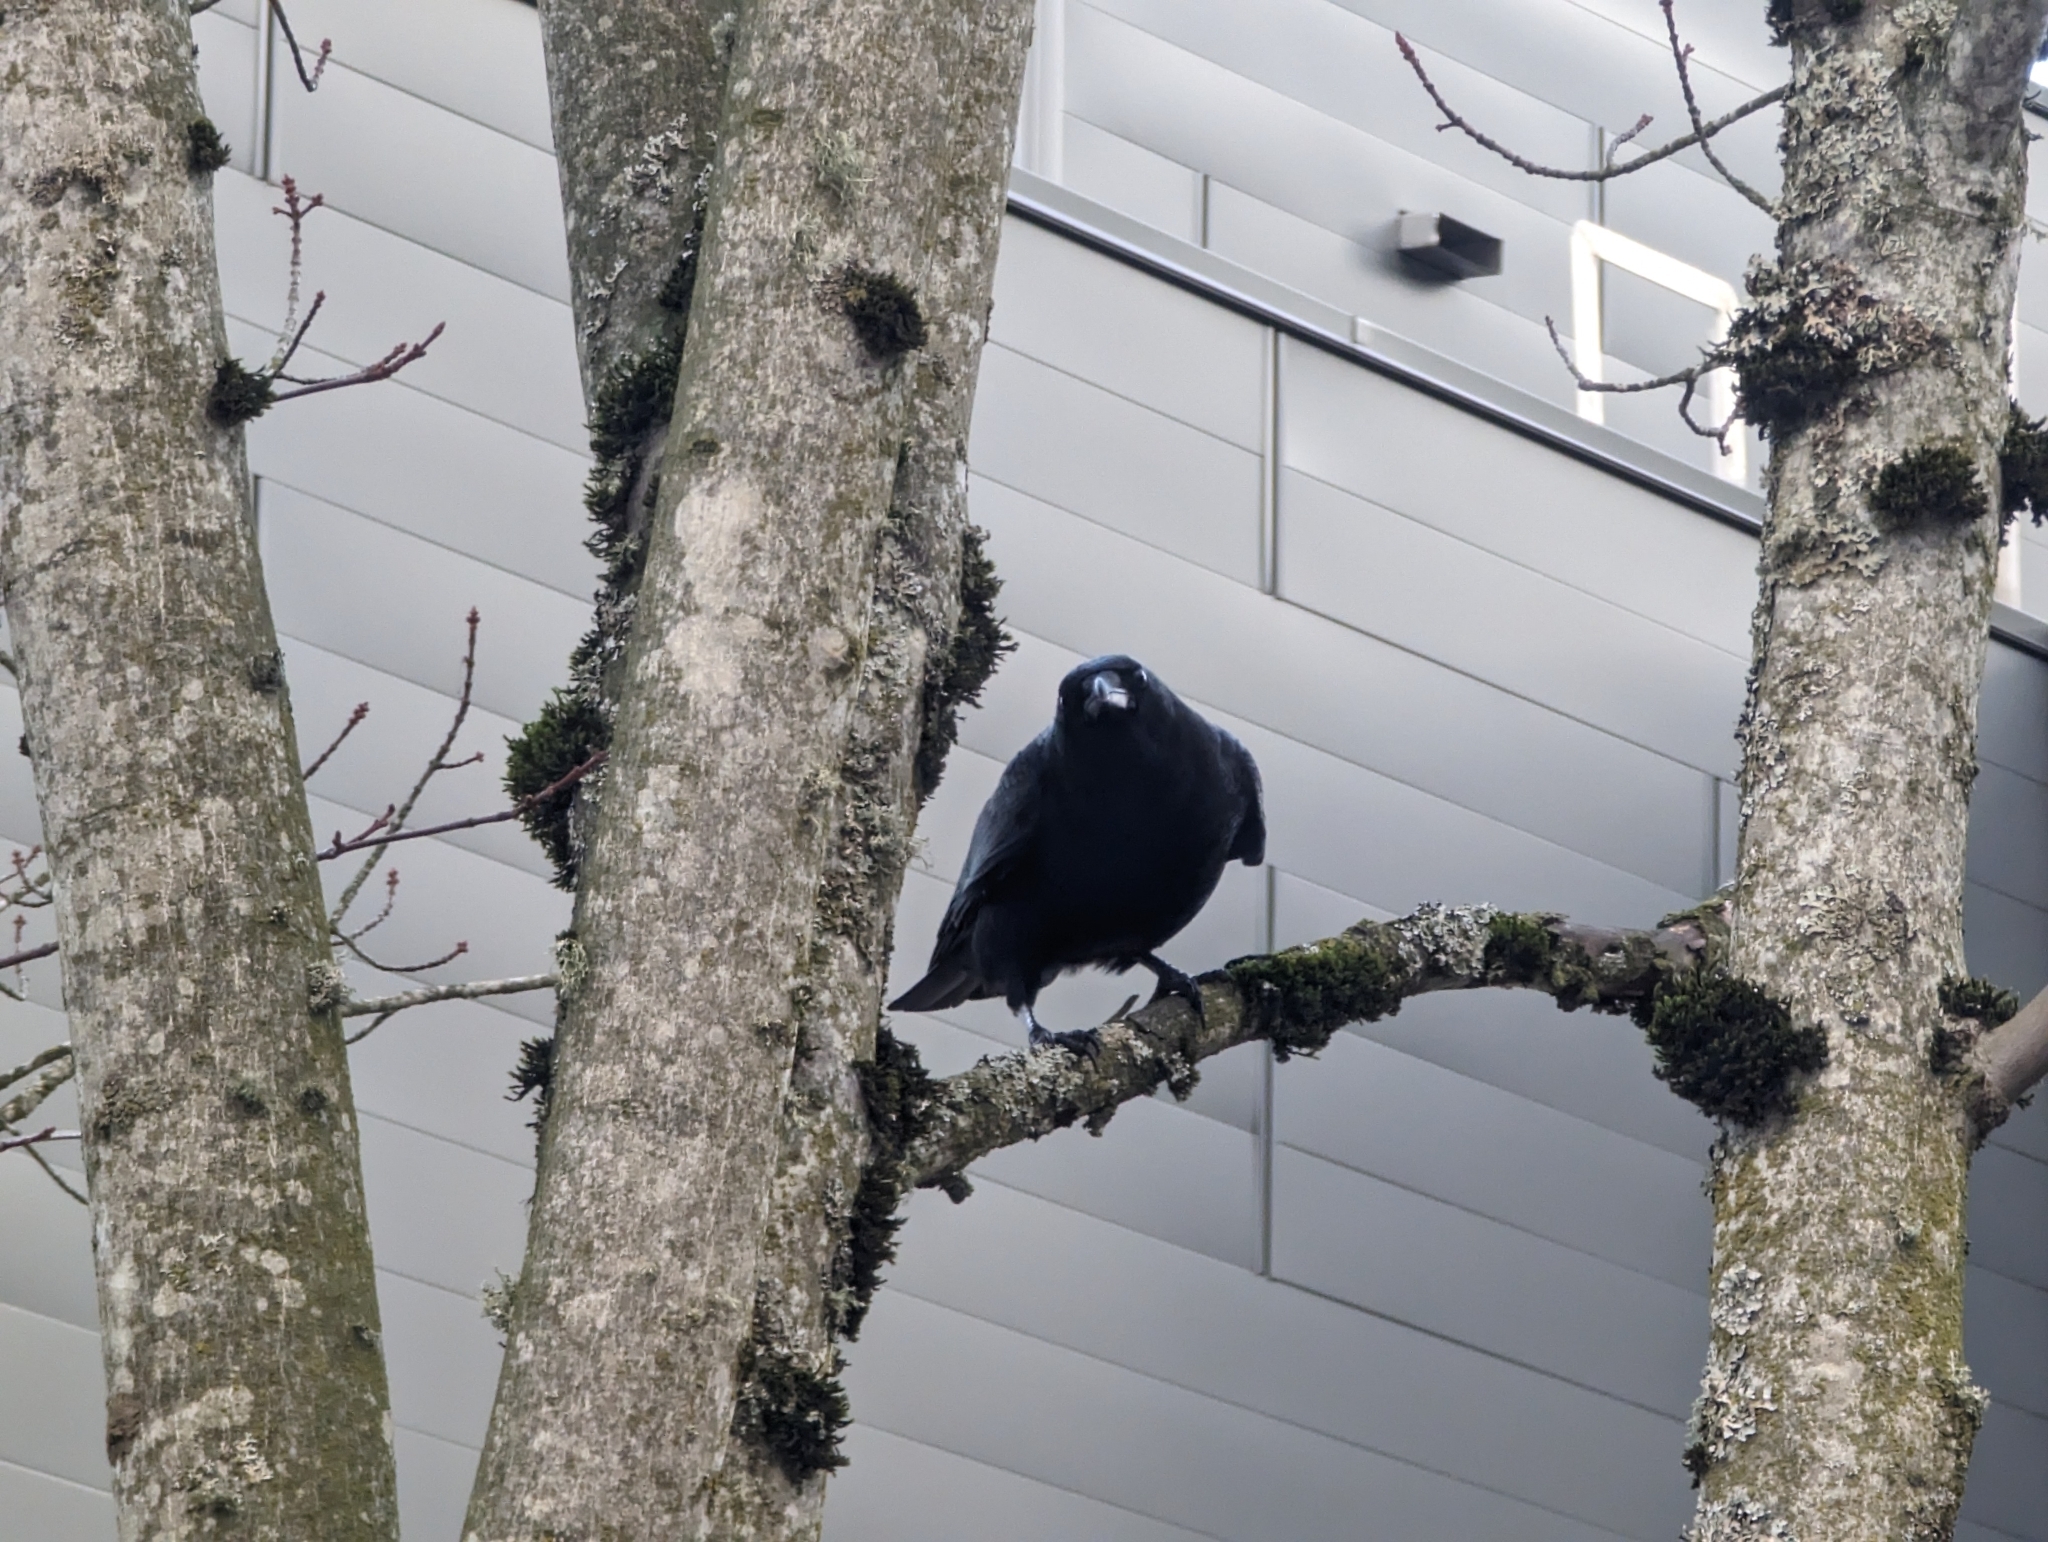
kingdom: Animalia
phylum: Chordata
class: Aves
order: Passeriformes
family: Corvidae
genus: Corvus
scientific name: Corvus brachyrhynchos
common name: American crow
